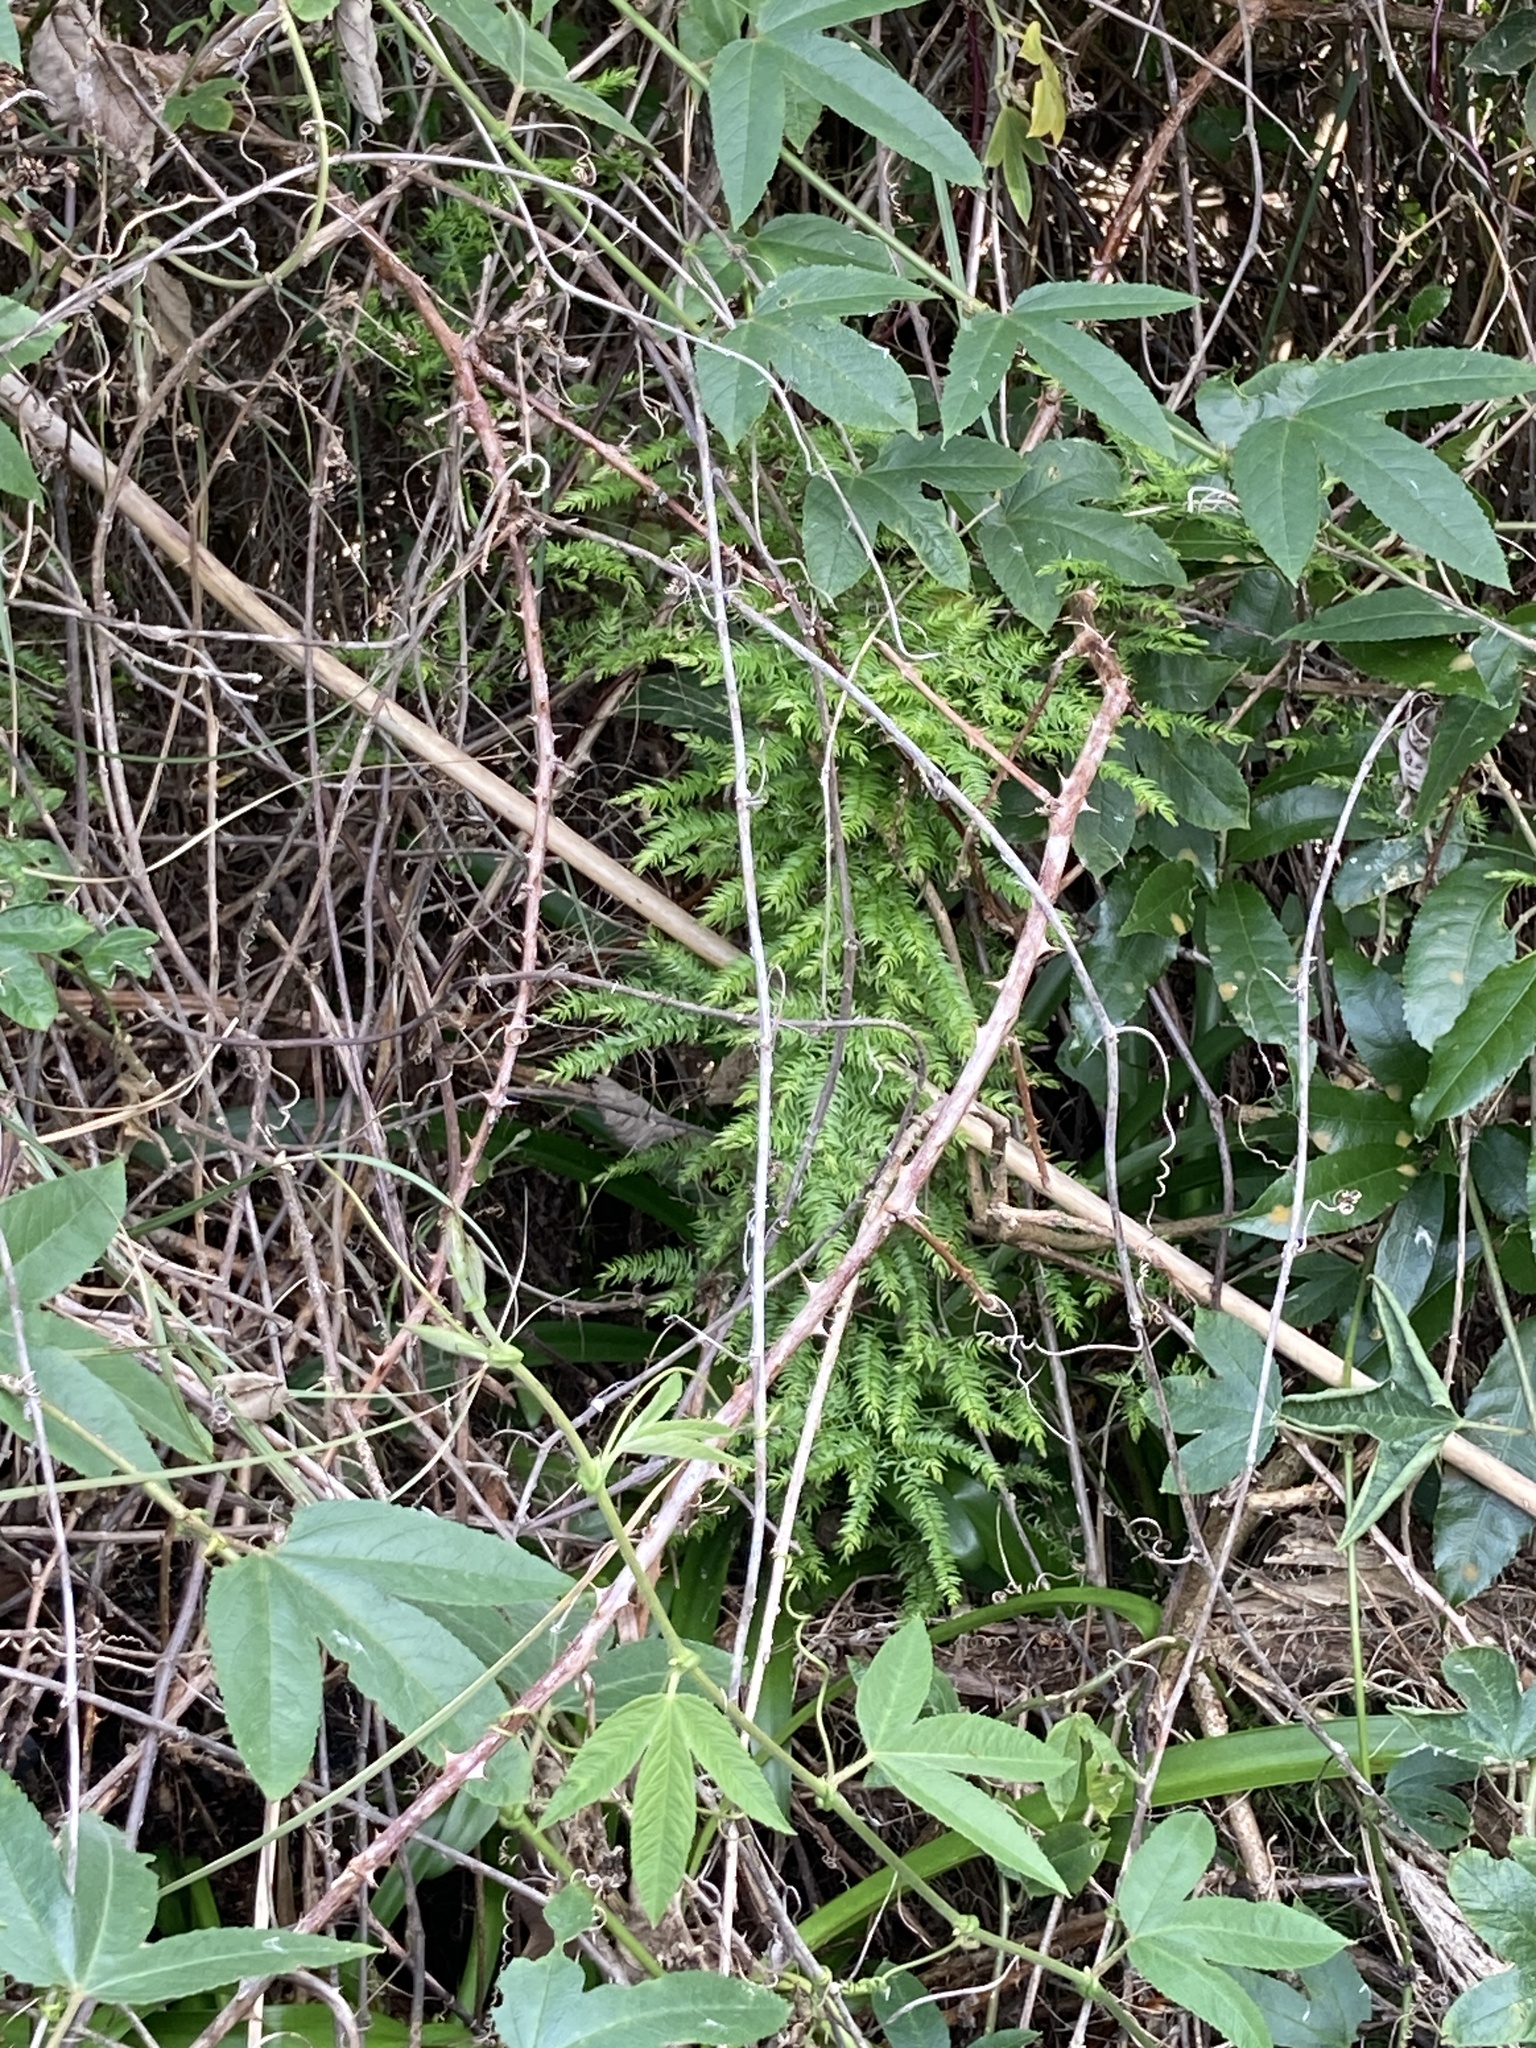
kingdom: Plantae
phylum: Tracheophyta
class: Liliopsida
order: Asparagales
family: Asparagaceae
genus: Asparagus
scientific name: Asparagus scandens
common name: Asparagus-fern
